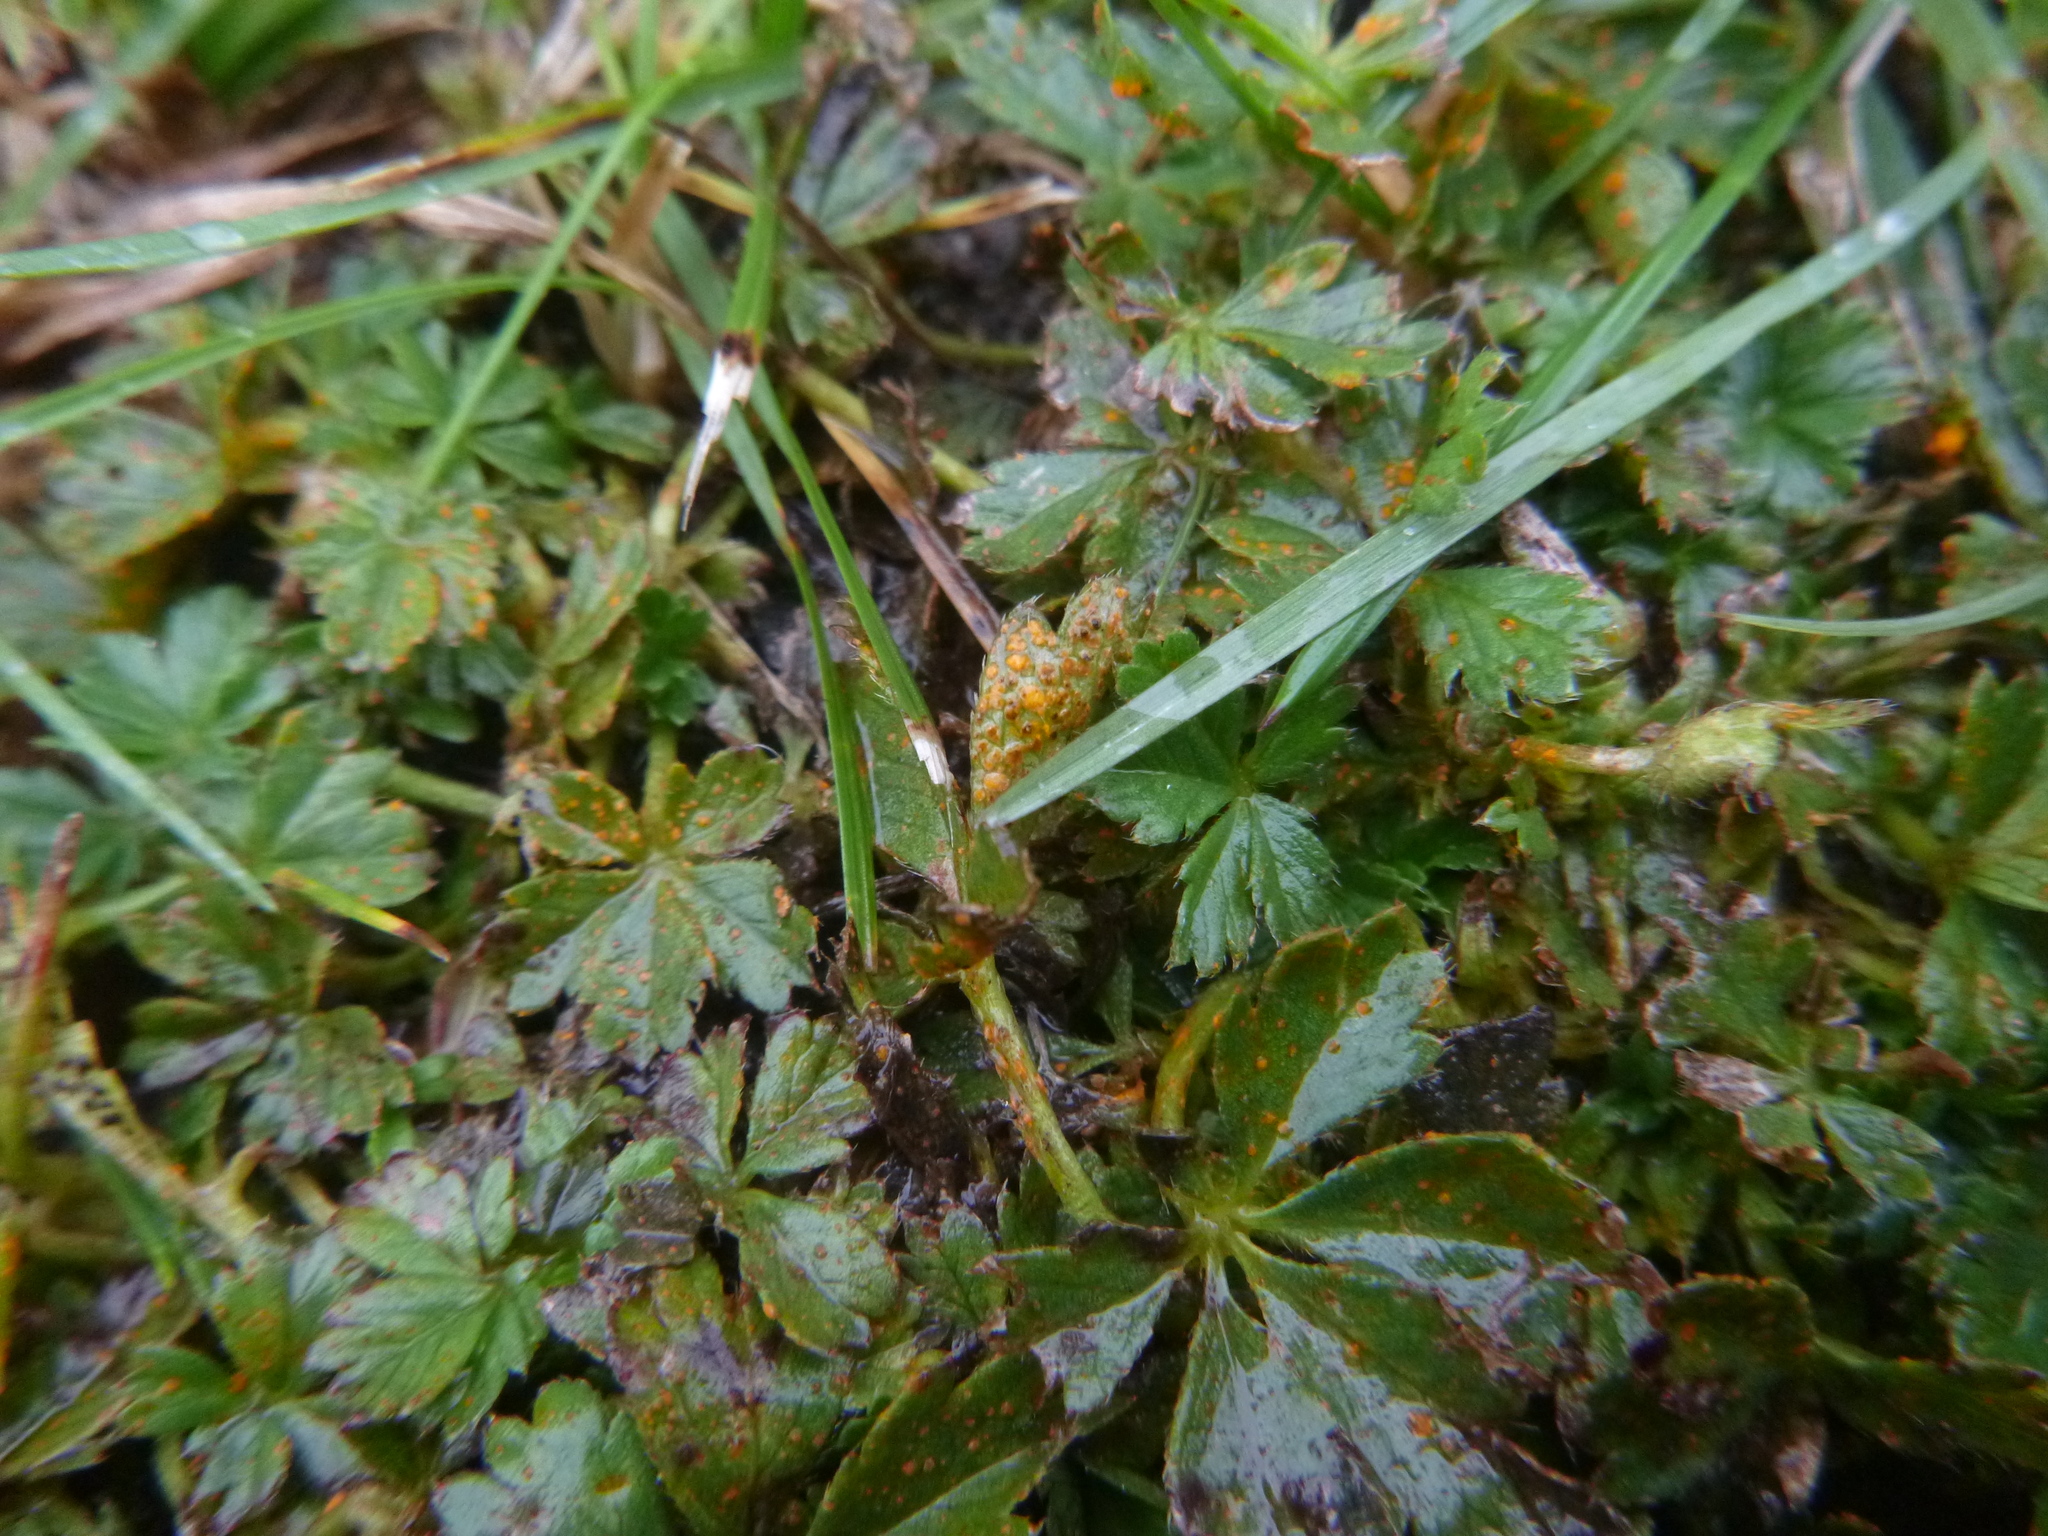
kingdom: Fungi
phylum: Basidiomycota
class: Pucciniomycetes
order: Pucciniales
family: Phragmidiaceae
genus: Phragmidium
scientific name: Phragmidium potentillae
